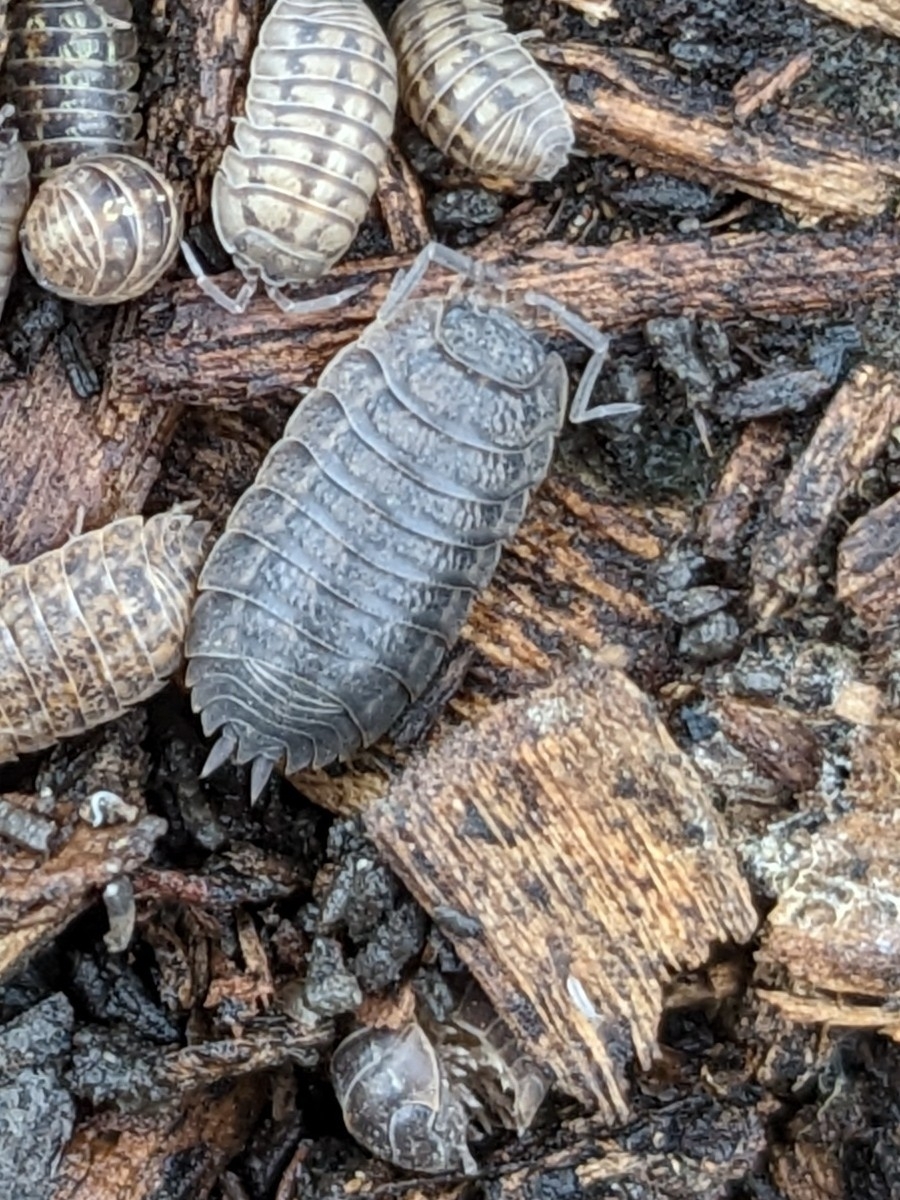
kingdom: Animalia
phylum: Arthropoda
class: Malacostraca
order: Isopoda
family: Trachelipodidae
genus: Trachelipus
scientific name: Trachelipus rathkii
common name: Isopod
